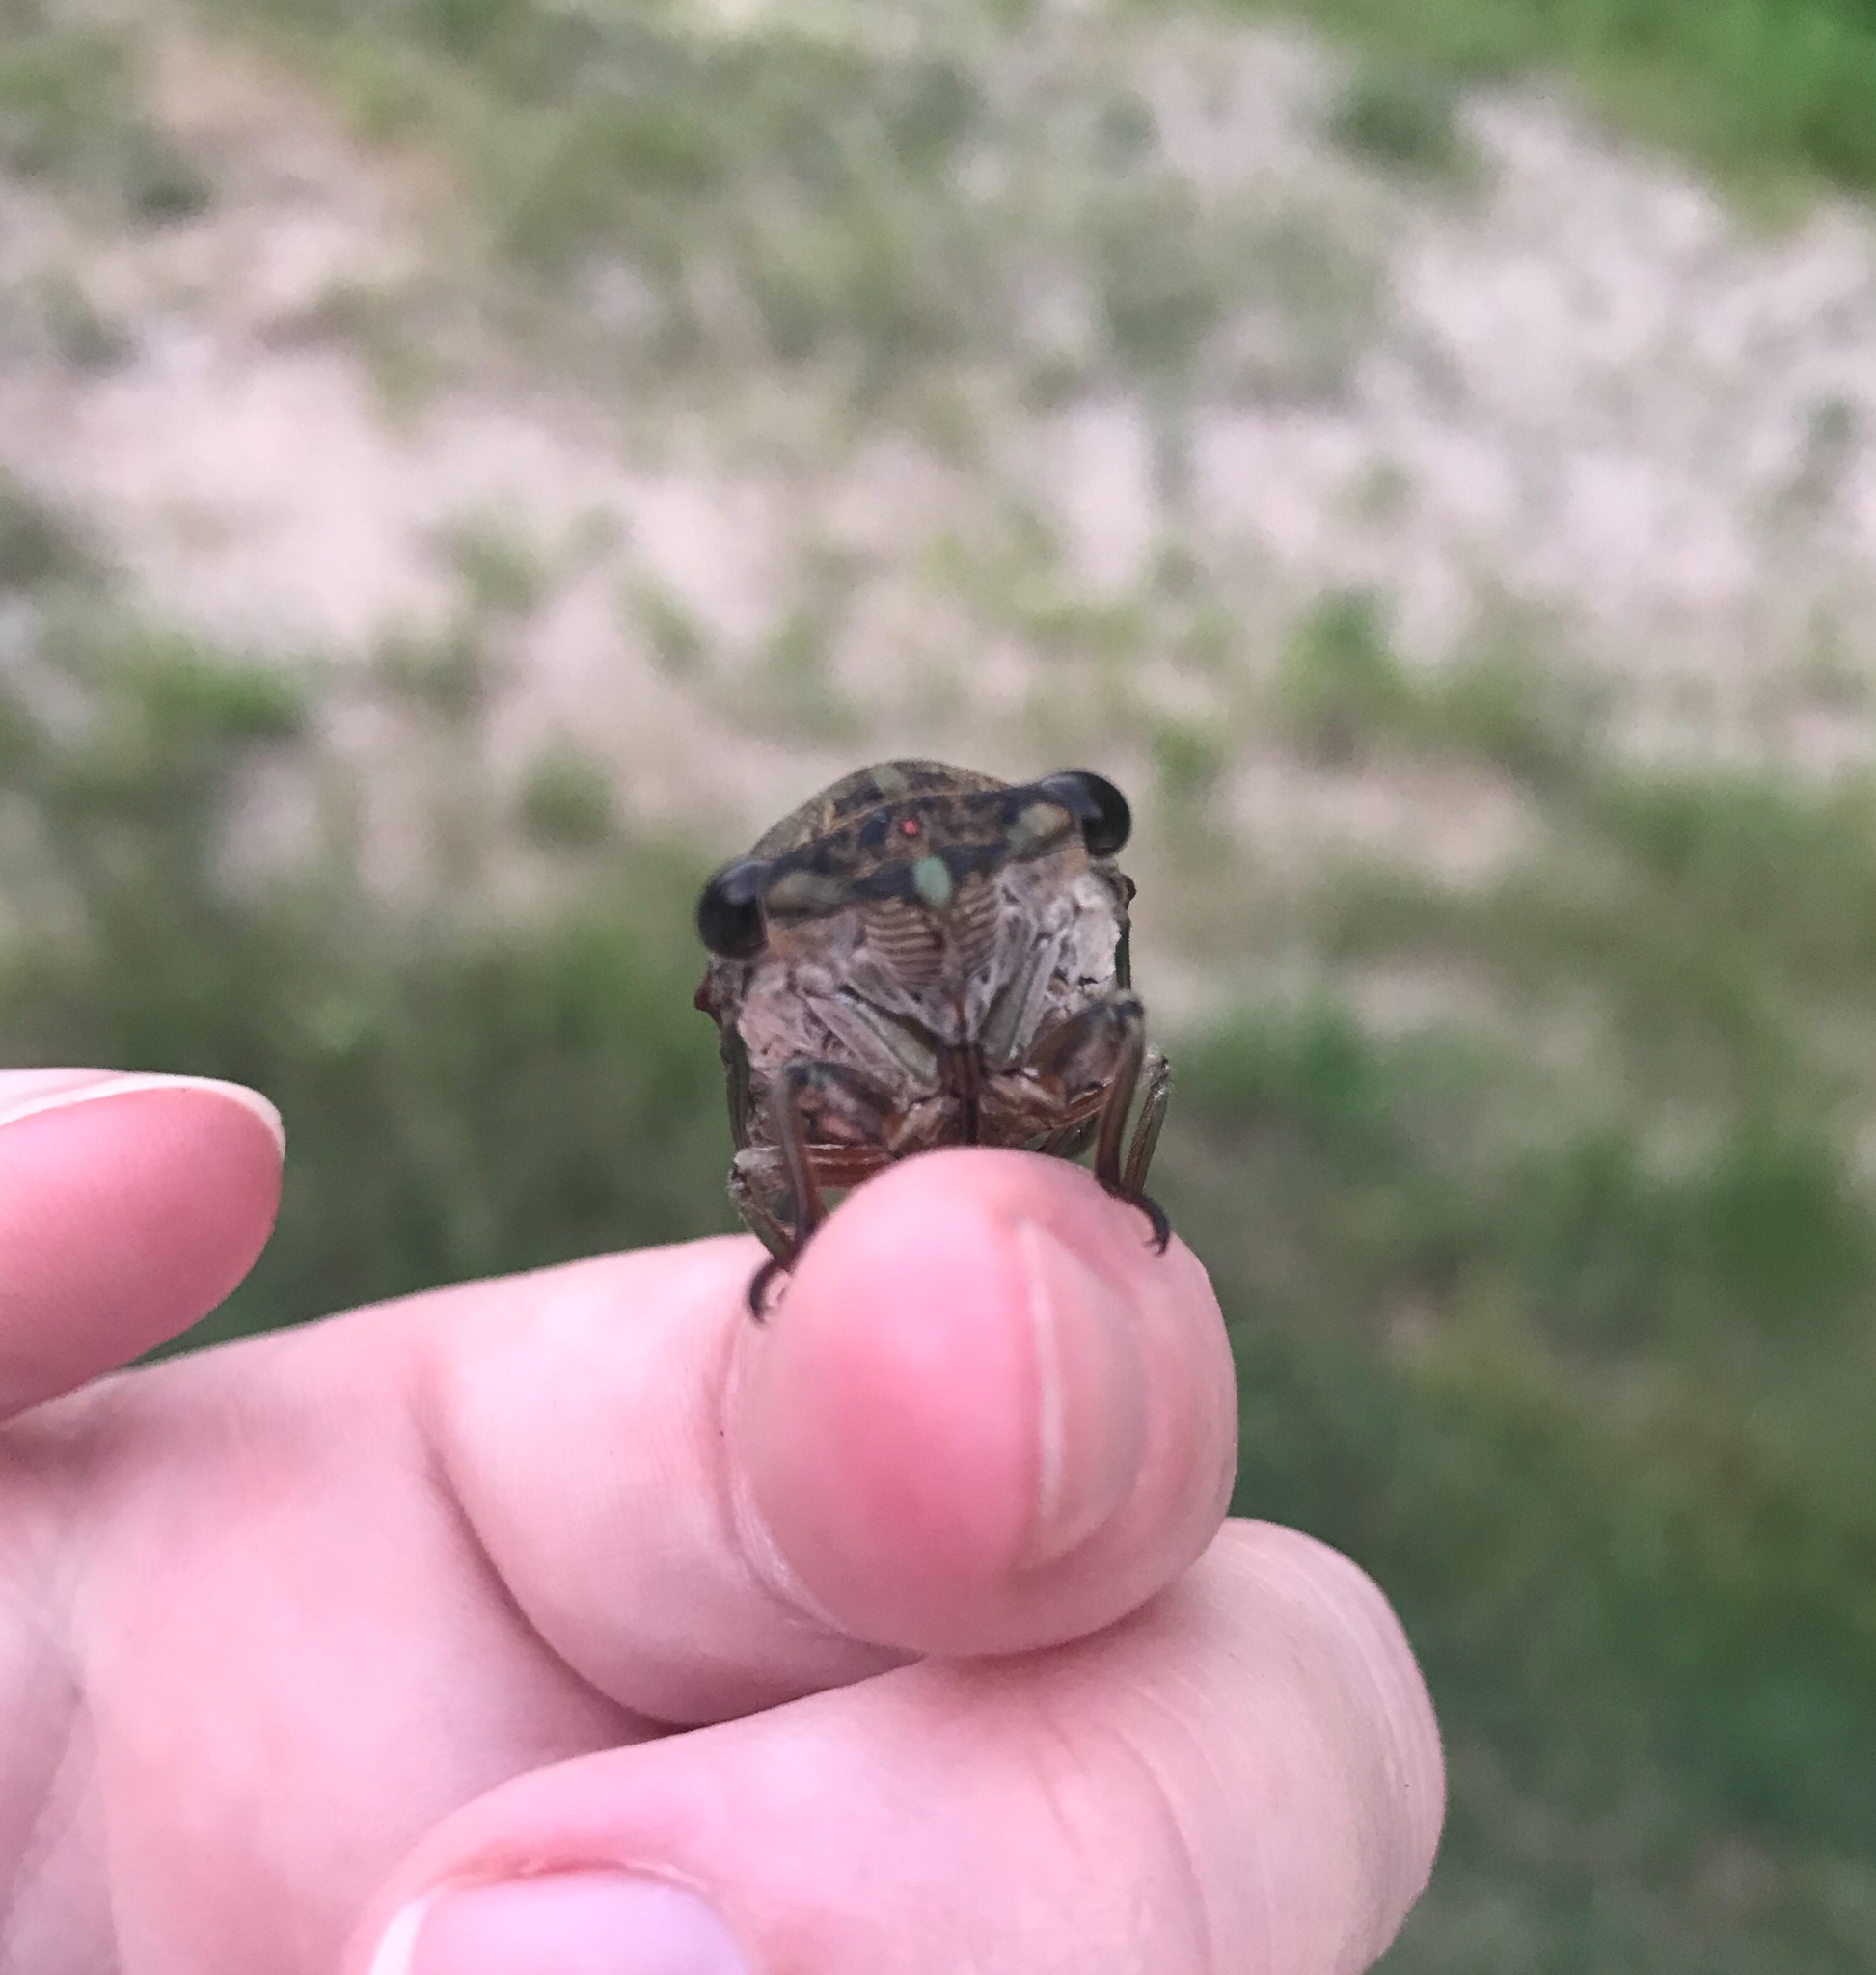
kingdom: Animalia
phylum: Arthropoda
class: Insecta
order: Hemiptera
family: Cicadidae
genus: Neotibicen
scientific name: Neotibicen pruinosus
